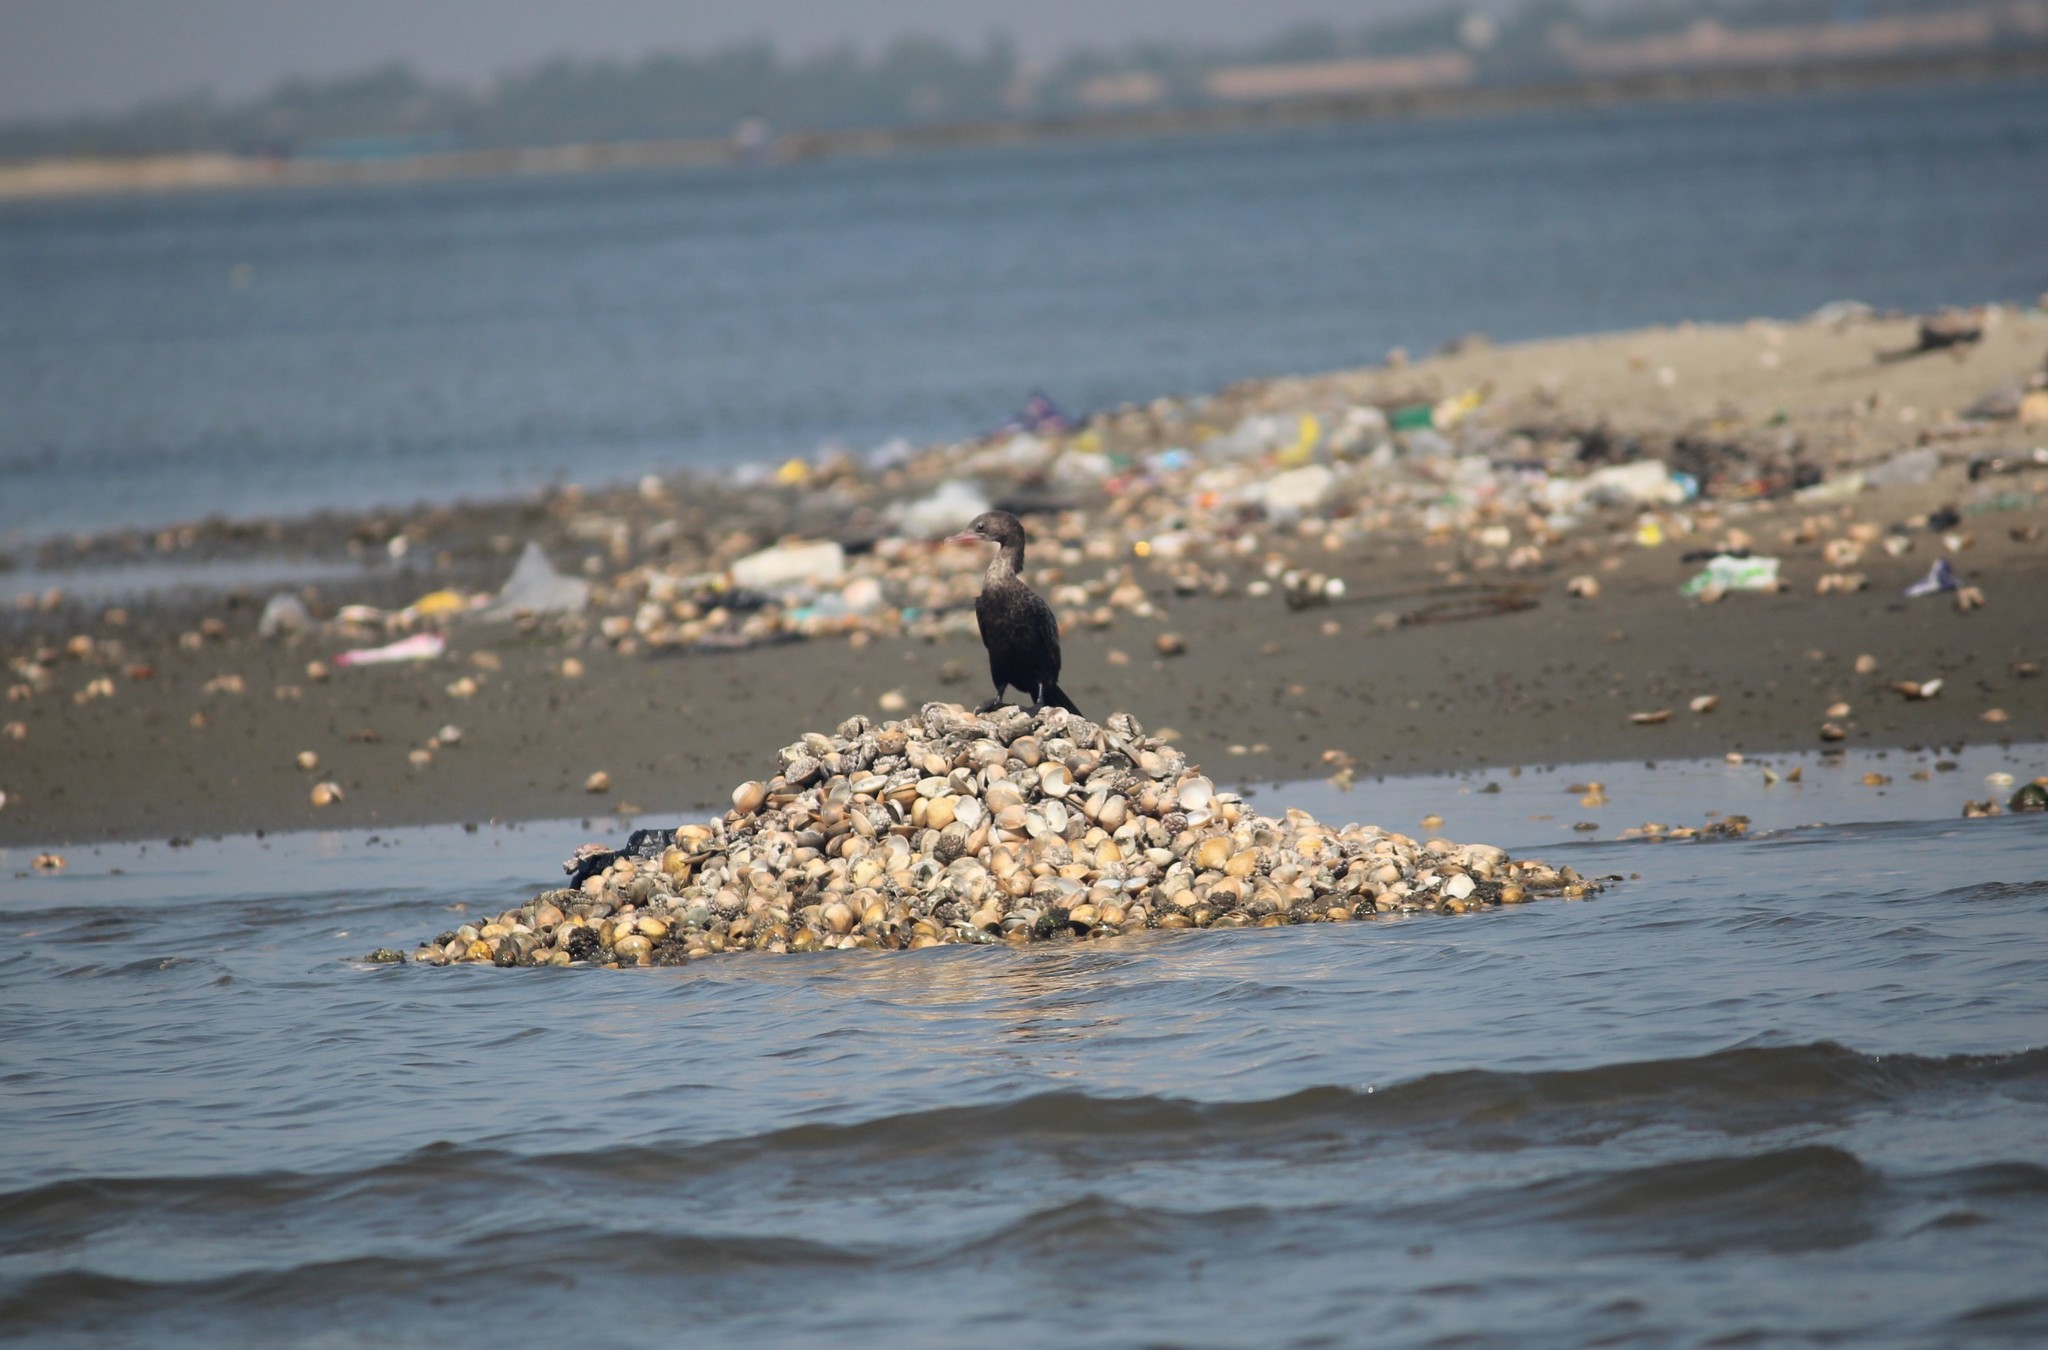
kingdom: Animalia
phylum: Chordata
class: Aves
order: Suliformes
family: Phalacrocoracidae
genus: Microcarbo
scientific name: Microcarbo niger
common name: Little cormorant
